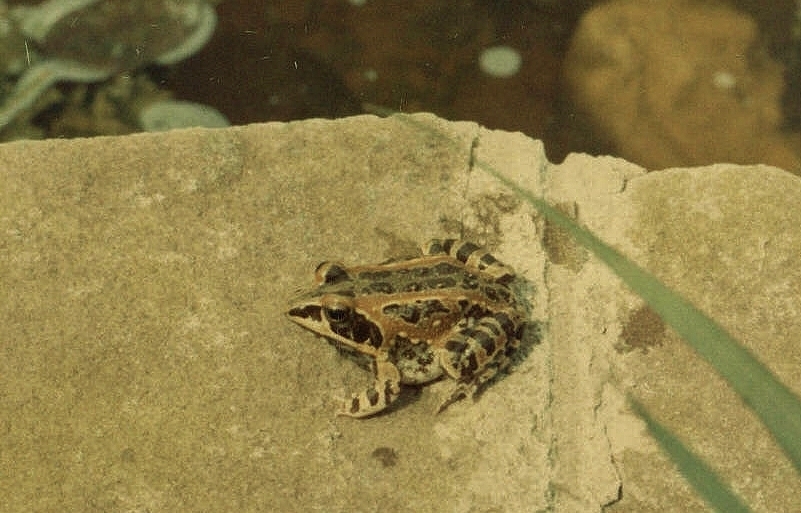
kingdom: Animalia
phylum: Chordata
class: Amphibia
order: Anura
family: Ptychadenidae
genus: Hildebrandtia
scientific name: Hildebrandtia ornata
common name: Ornate frog
